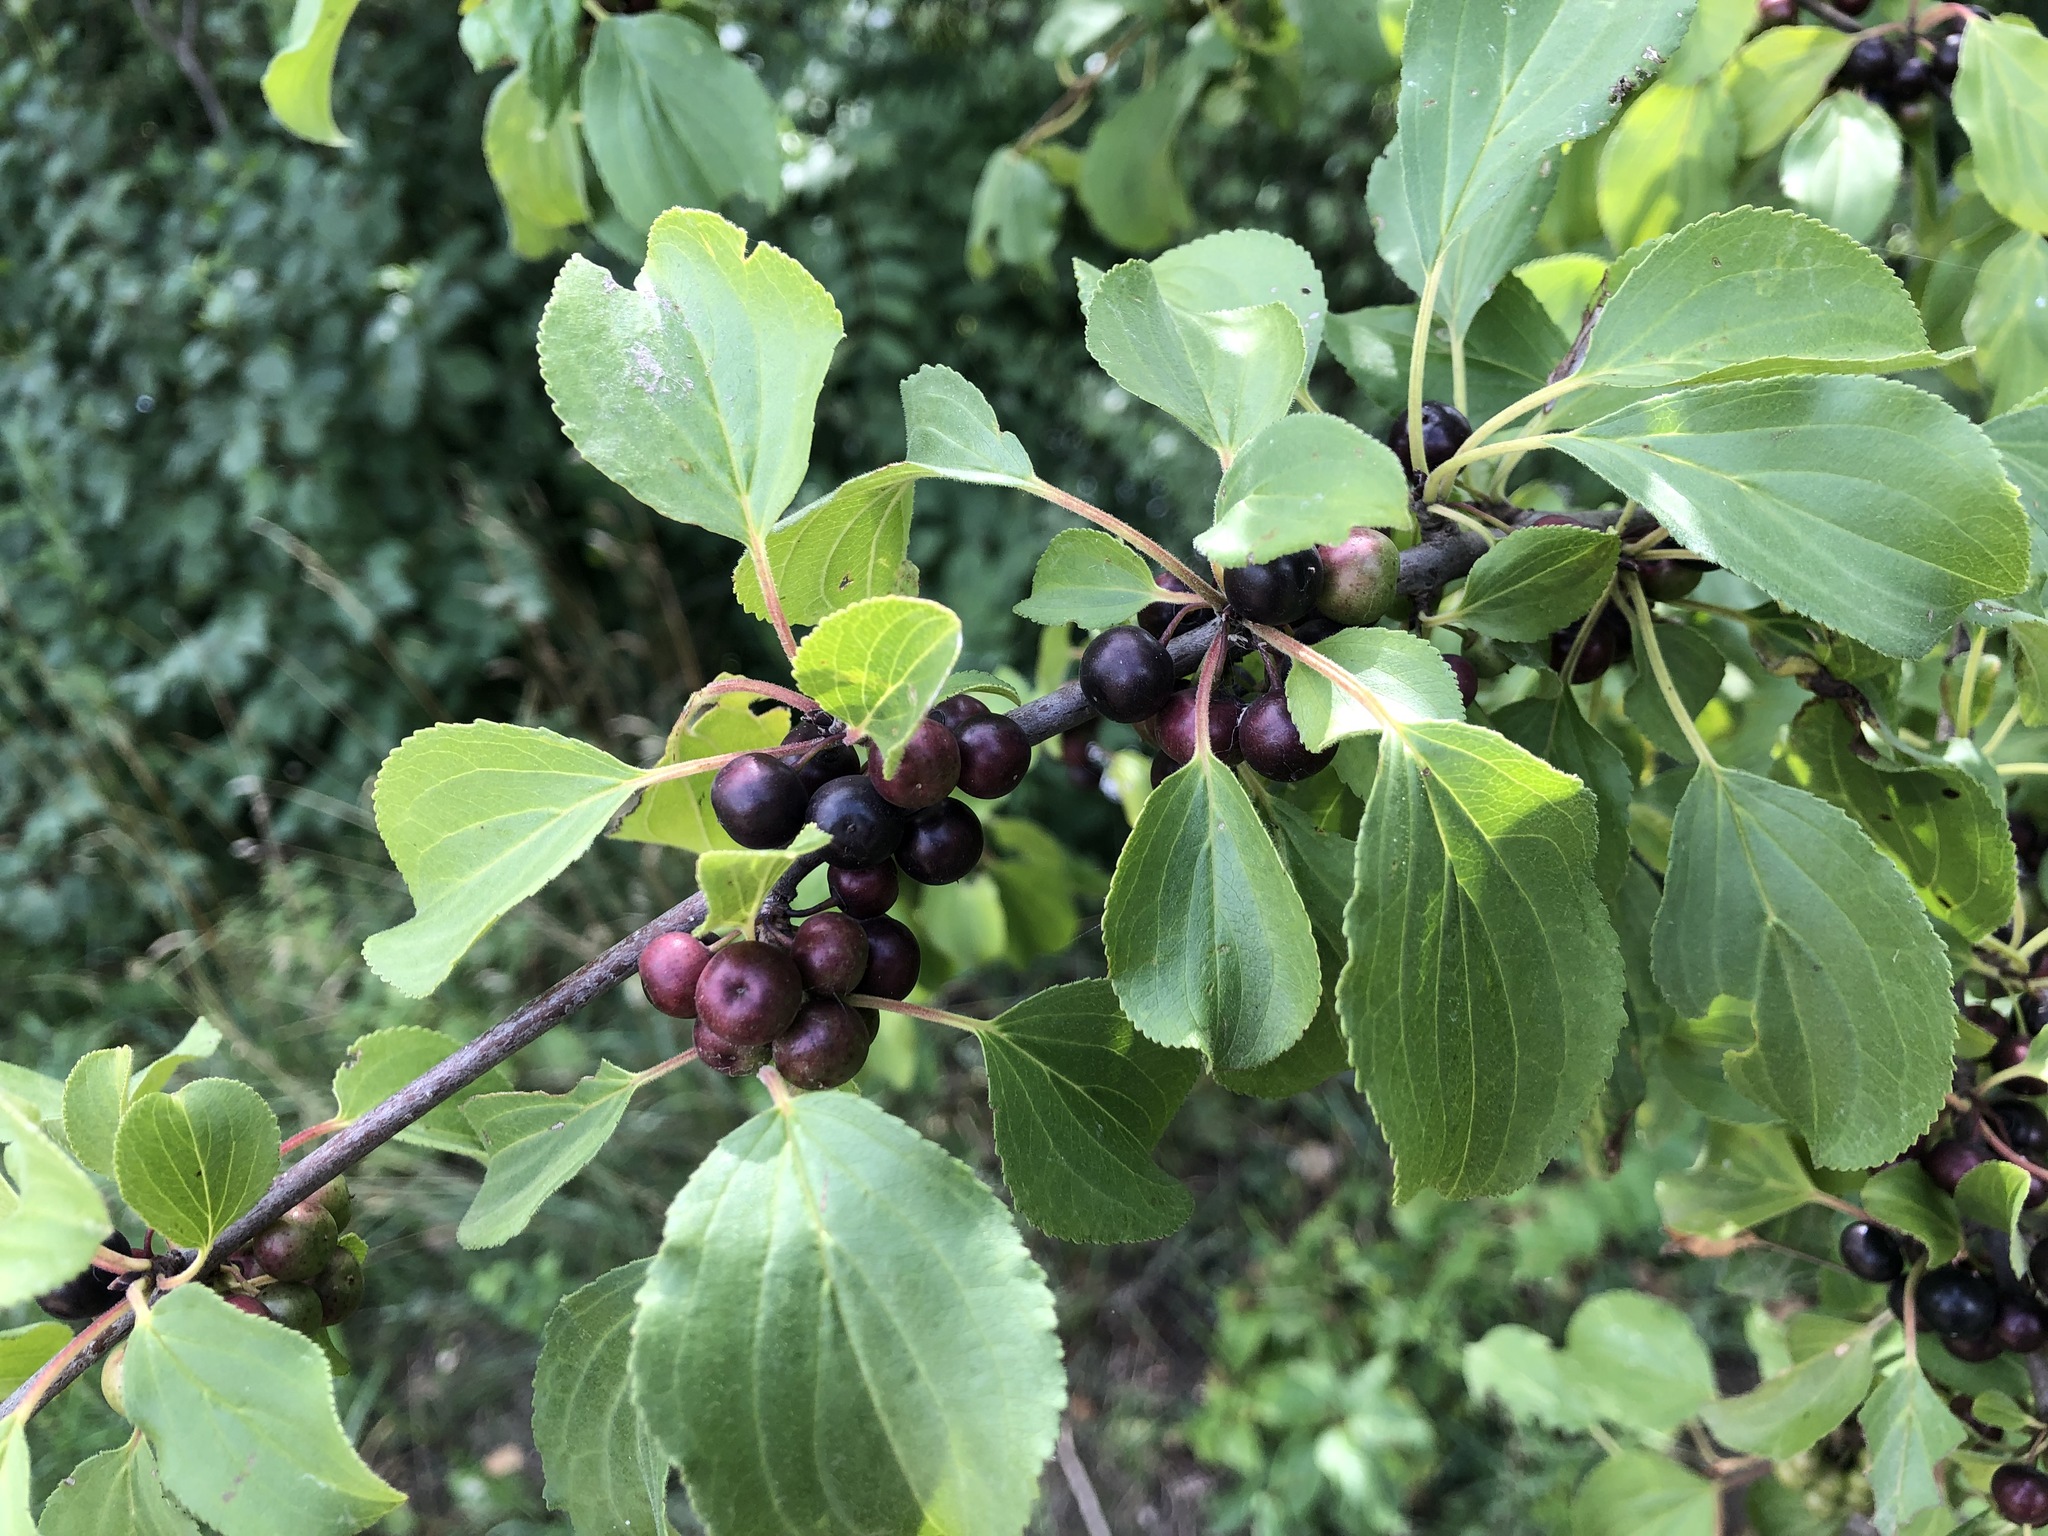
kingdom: Plantae
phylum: Tracheophyta
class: Magnoliopsida
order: Rosales
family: Rhamnaceae
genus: Rhamnus
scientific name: Rhamnus cathartica
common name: Common buckthorn
